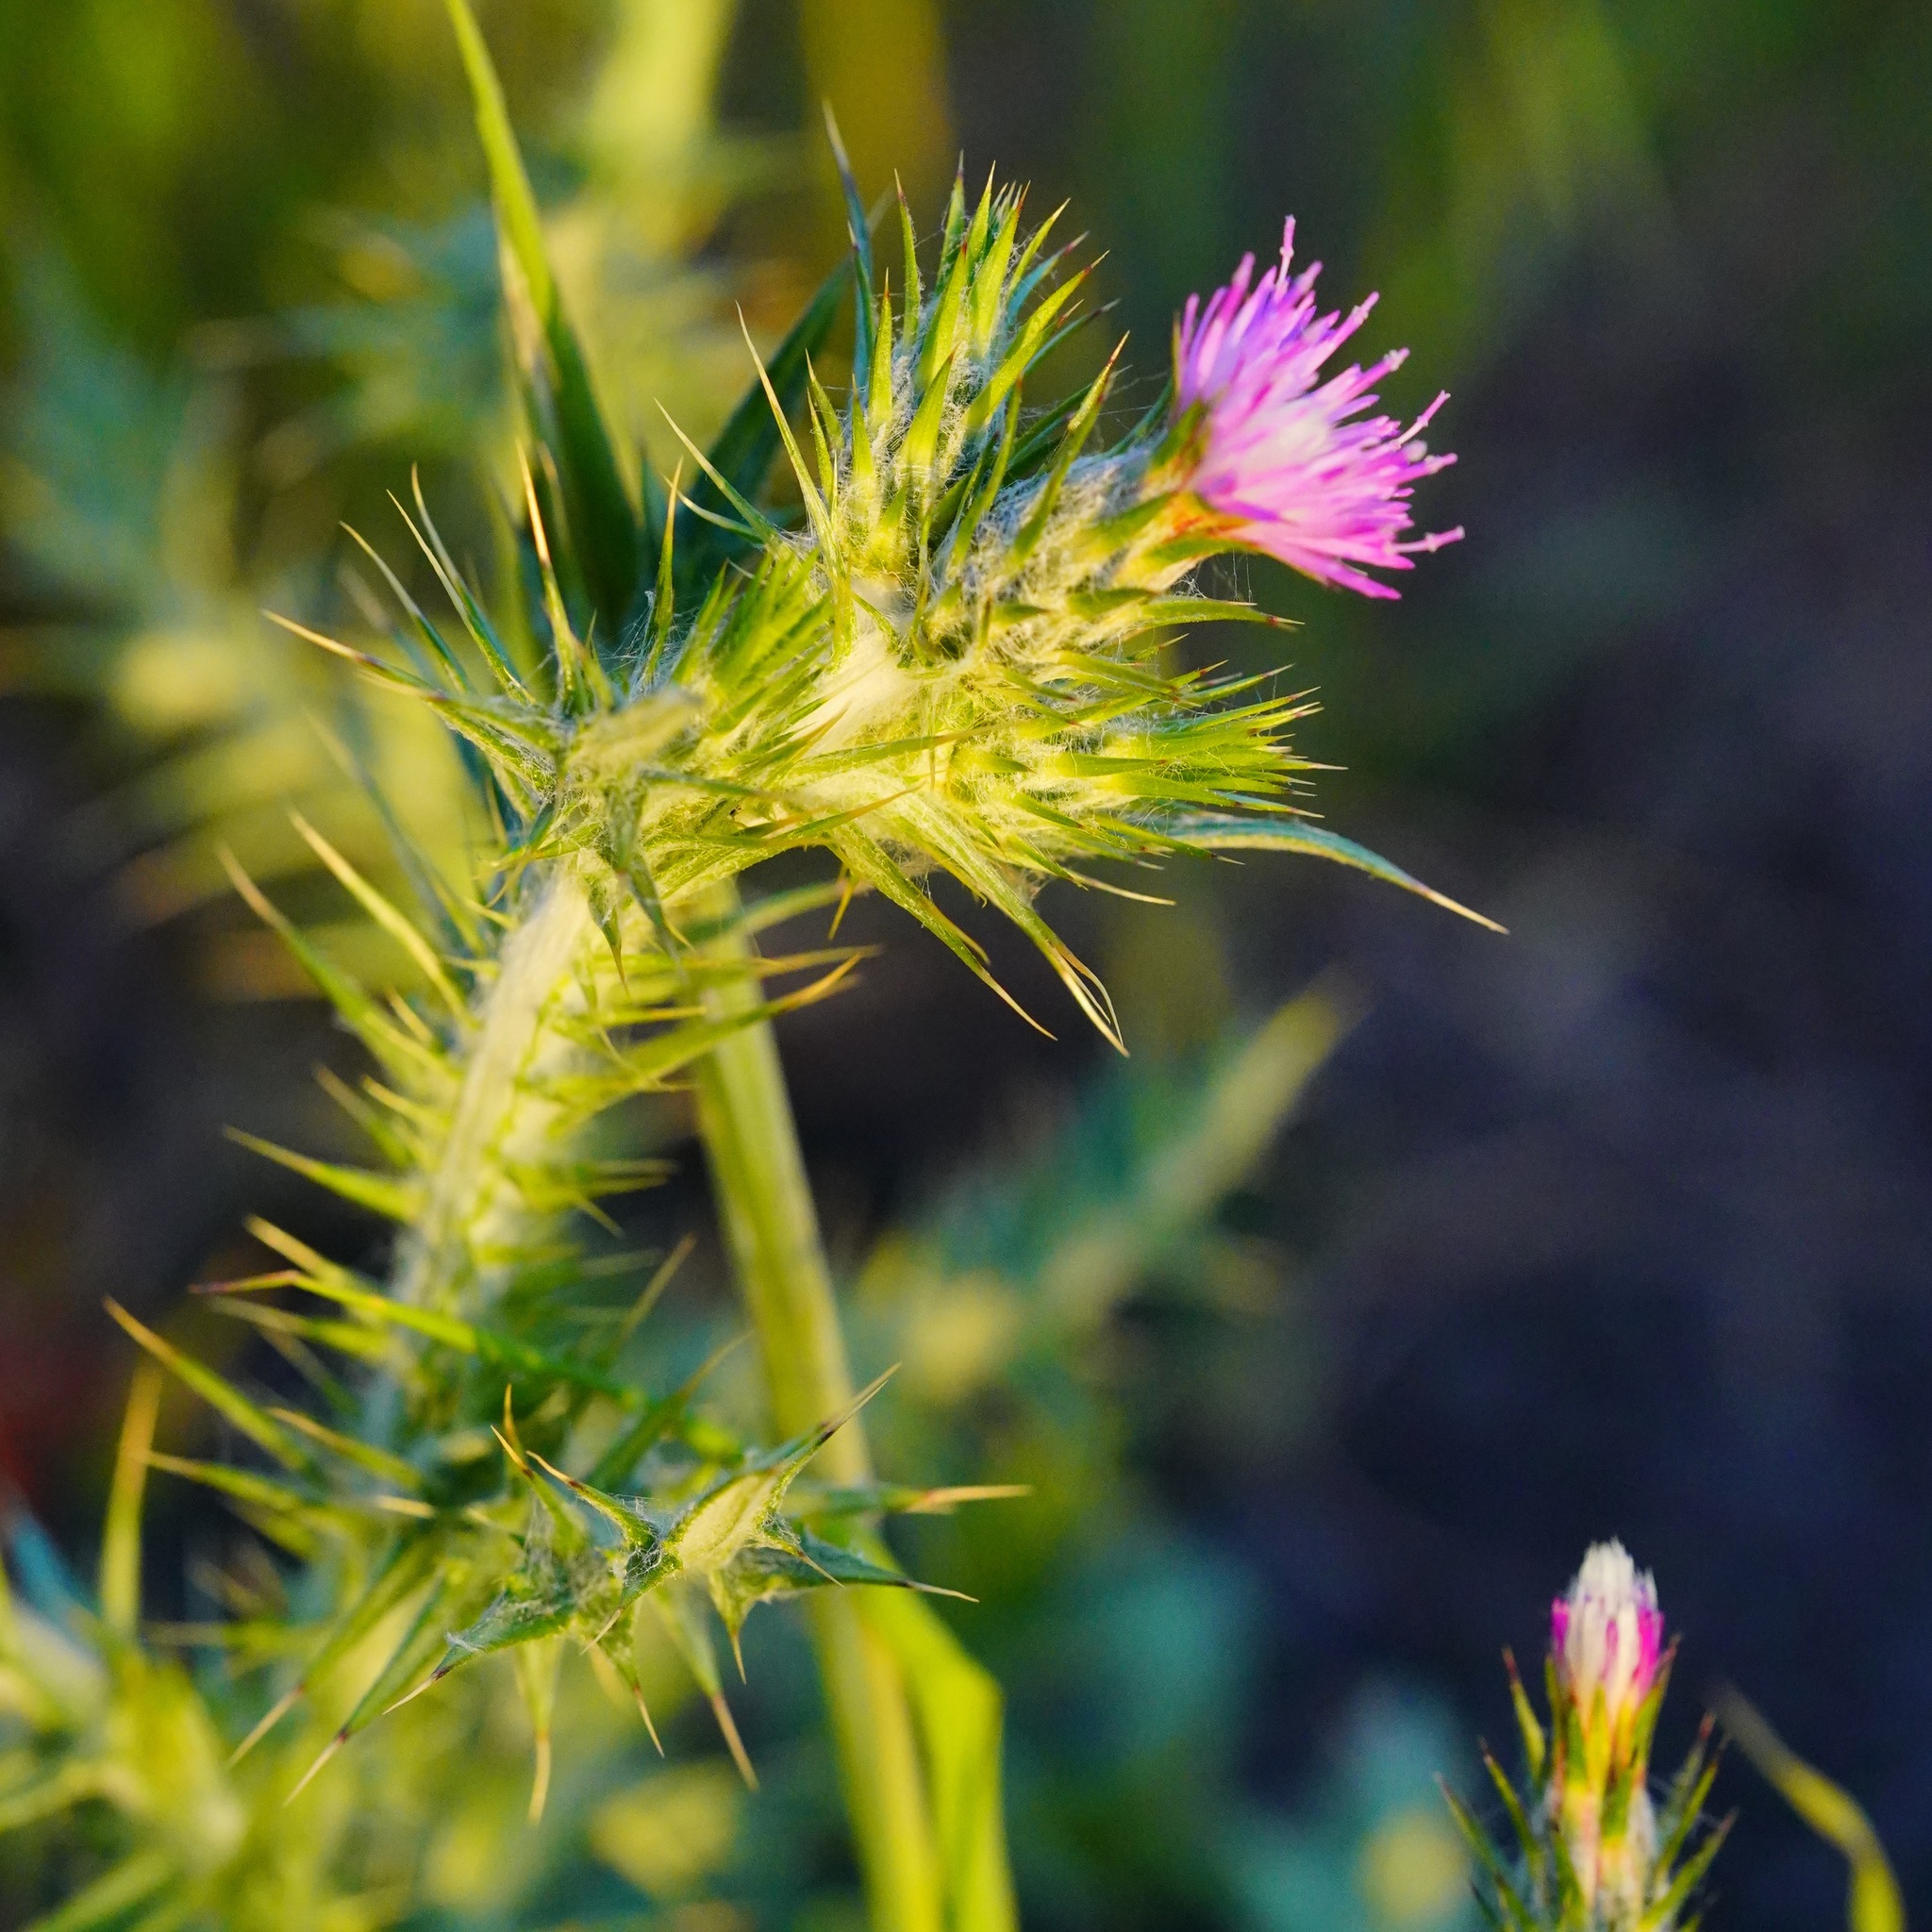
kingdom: Plantae
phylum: Tracheophyta
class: Magnoliopsida
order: Asterales
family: Asteraceae
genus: Carduus
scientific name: Carduus pycnocephalus
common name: Plymouth thistle
